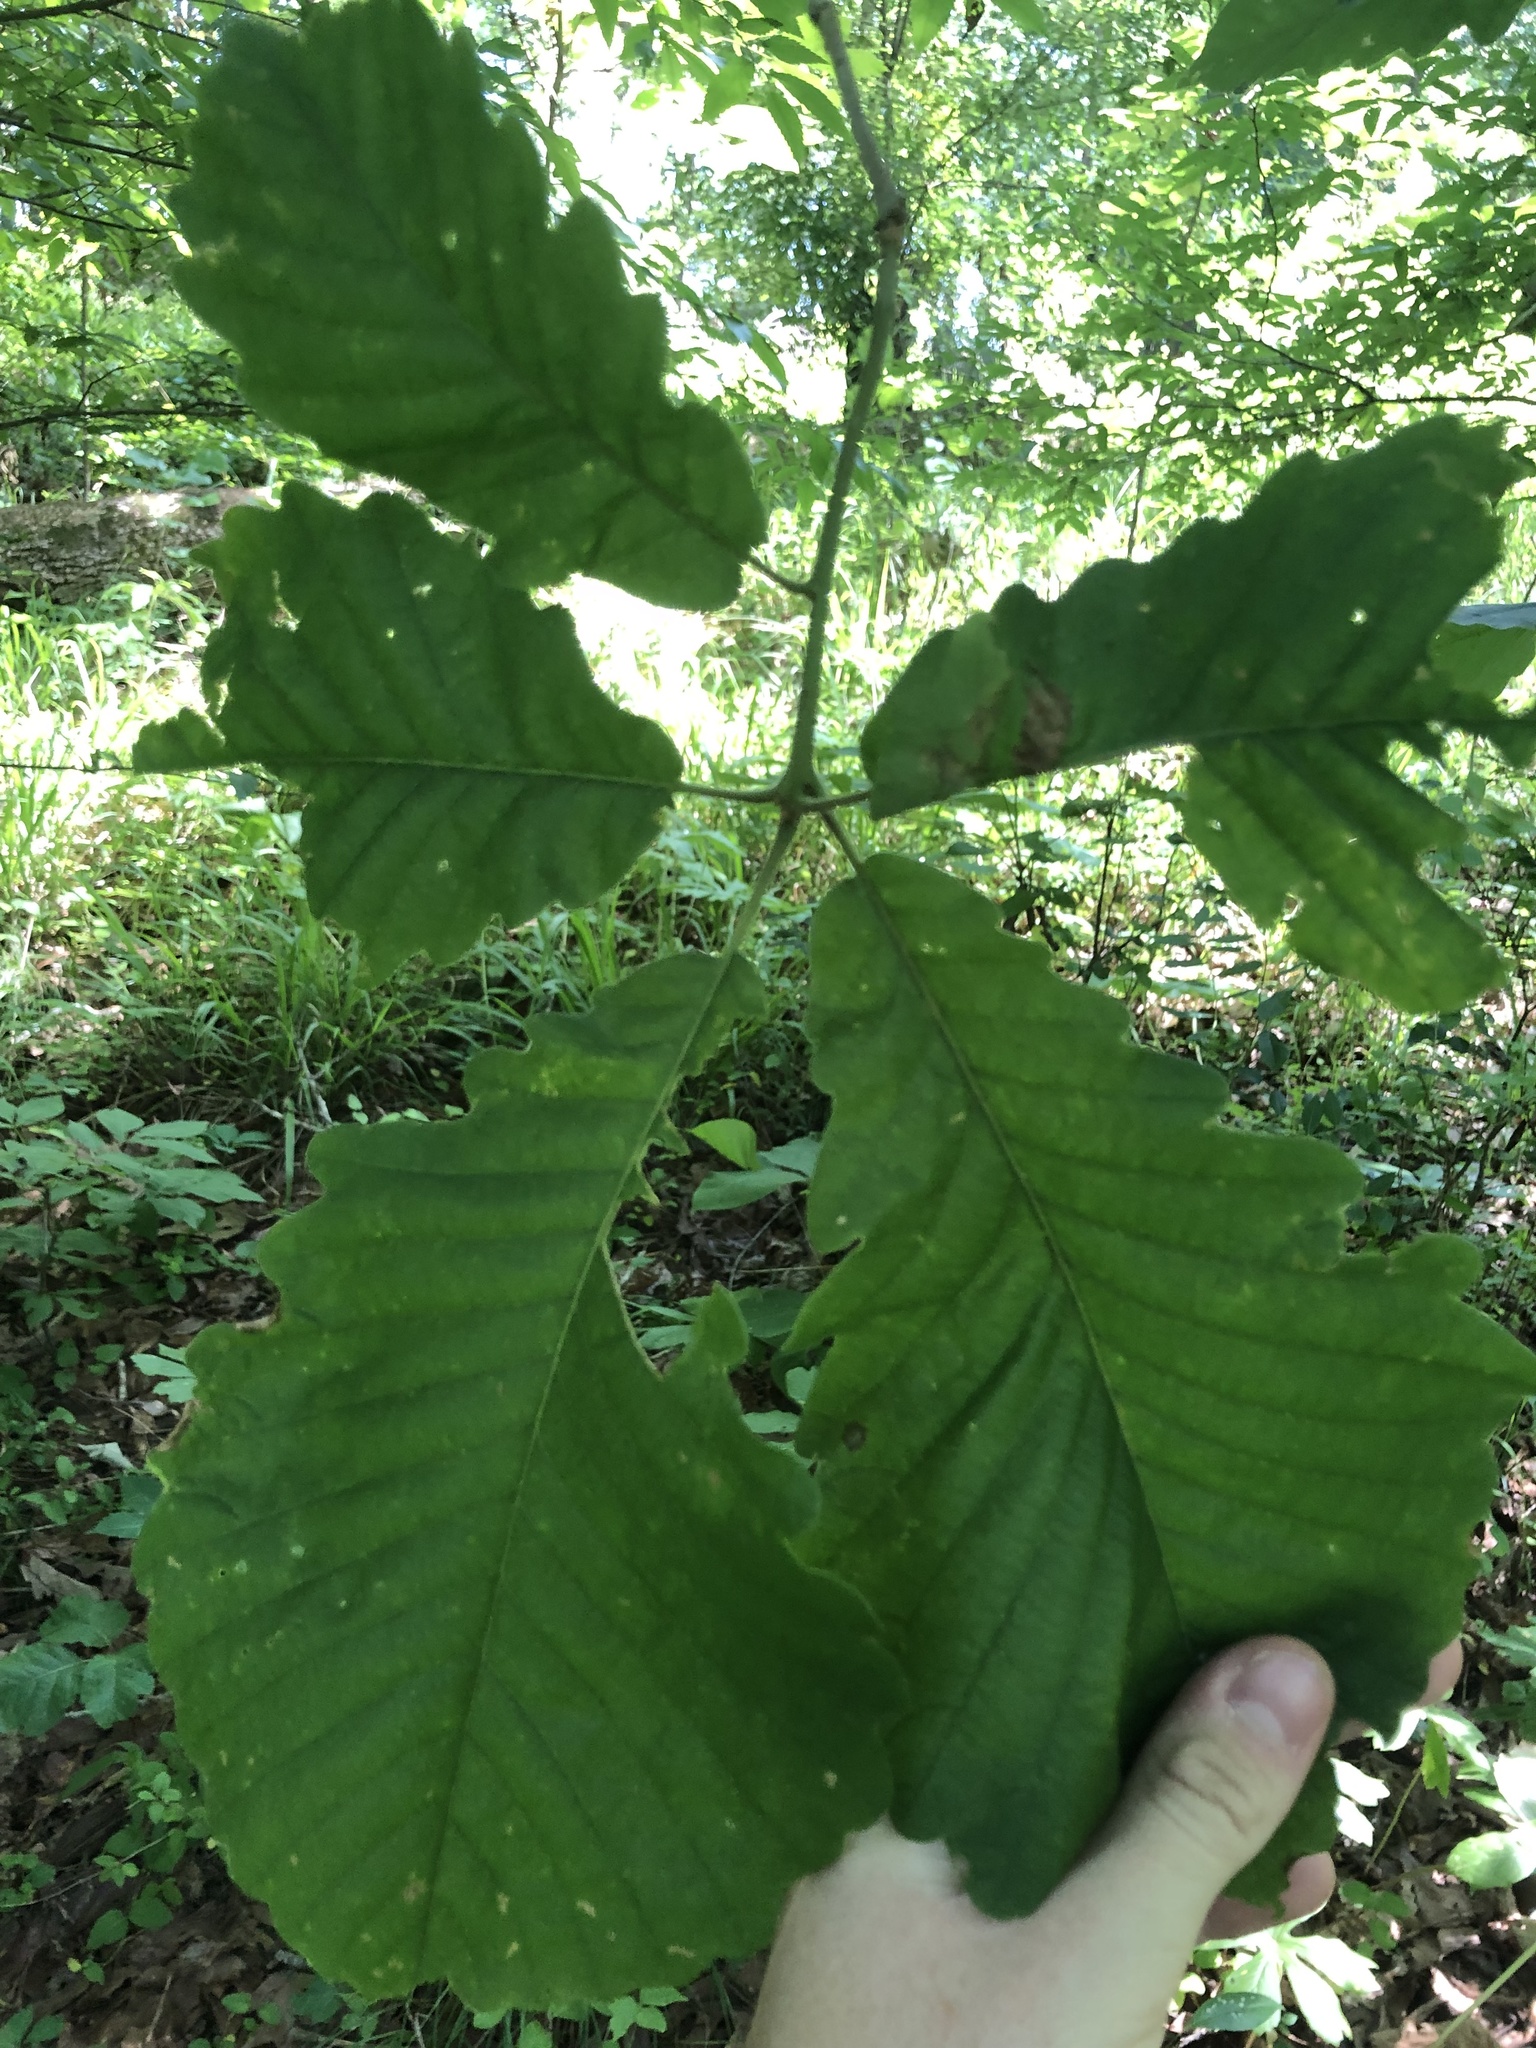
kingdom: Plantae
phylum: Tracheophyta
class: Magnoliopsida
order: Fagales
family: Fagaceae
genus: Quercus
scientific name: Quercus michauxii
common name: Swamp chestnut oak
